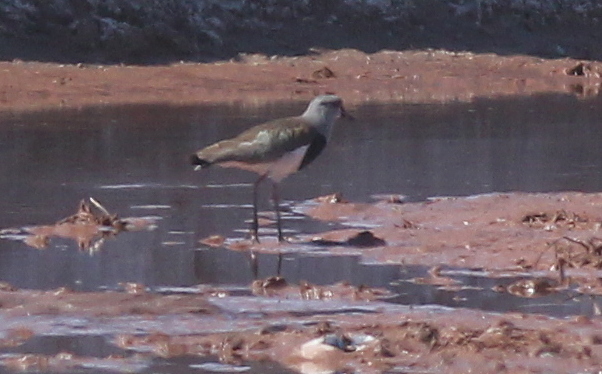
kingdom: Animalia
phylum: Chordata
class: Aves
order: Charadriiformes
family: Charadriidae
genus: Vanellus
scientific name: Vanellus chilensis
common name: Southern lapwing
